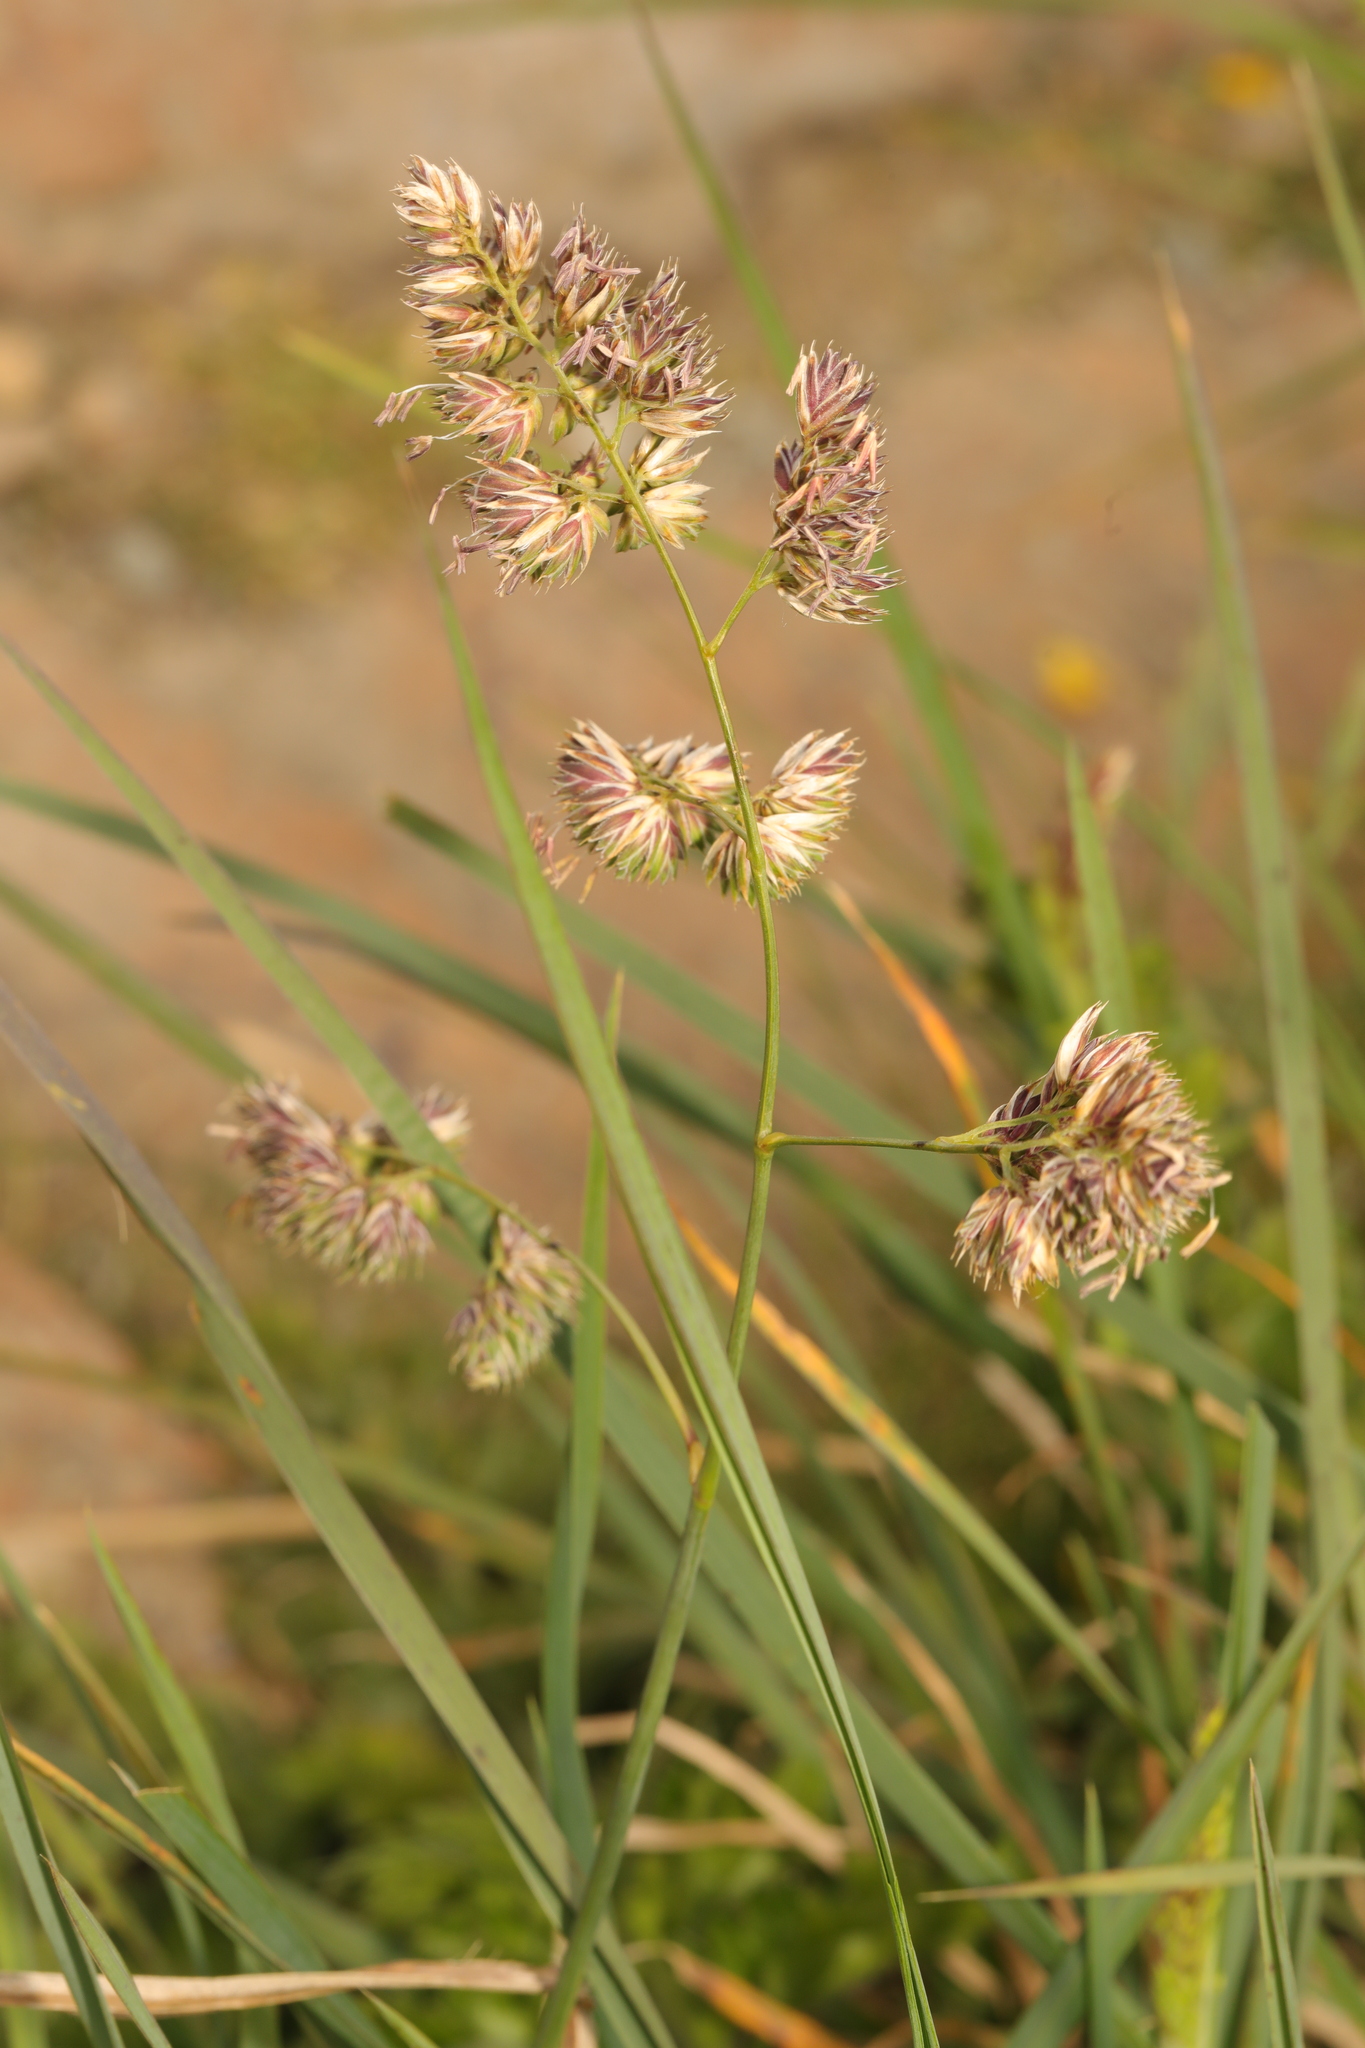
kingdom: Plantae
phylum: Tracheophyta
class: Liliopsida
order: Poales
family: Poaceae
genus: Dactylis
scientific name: Dactylis glomerata
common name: Orchardgrass
